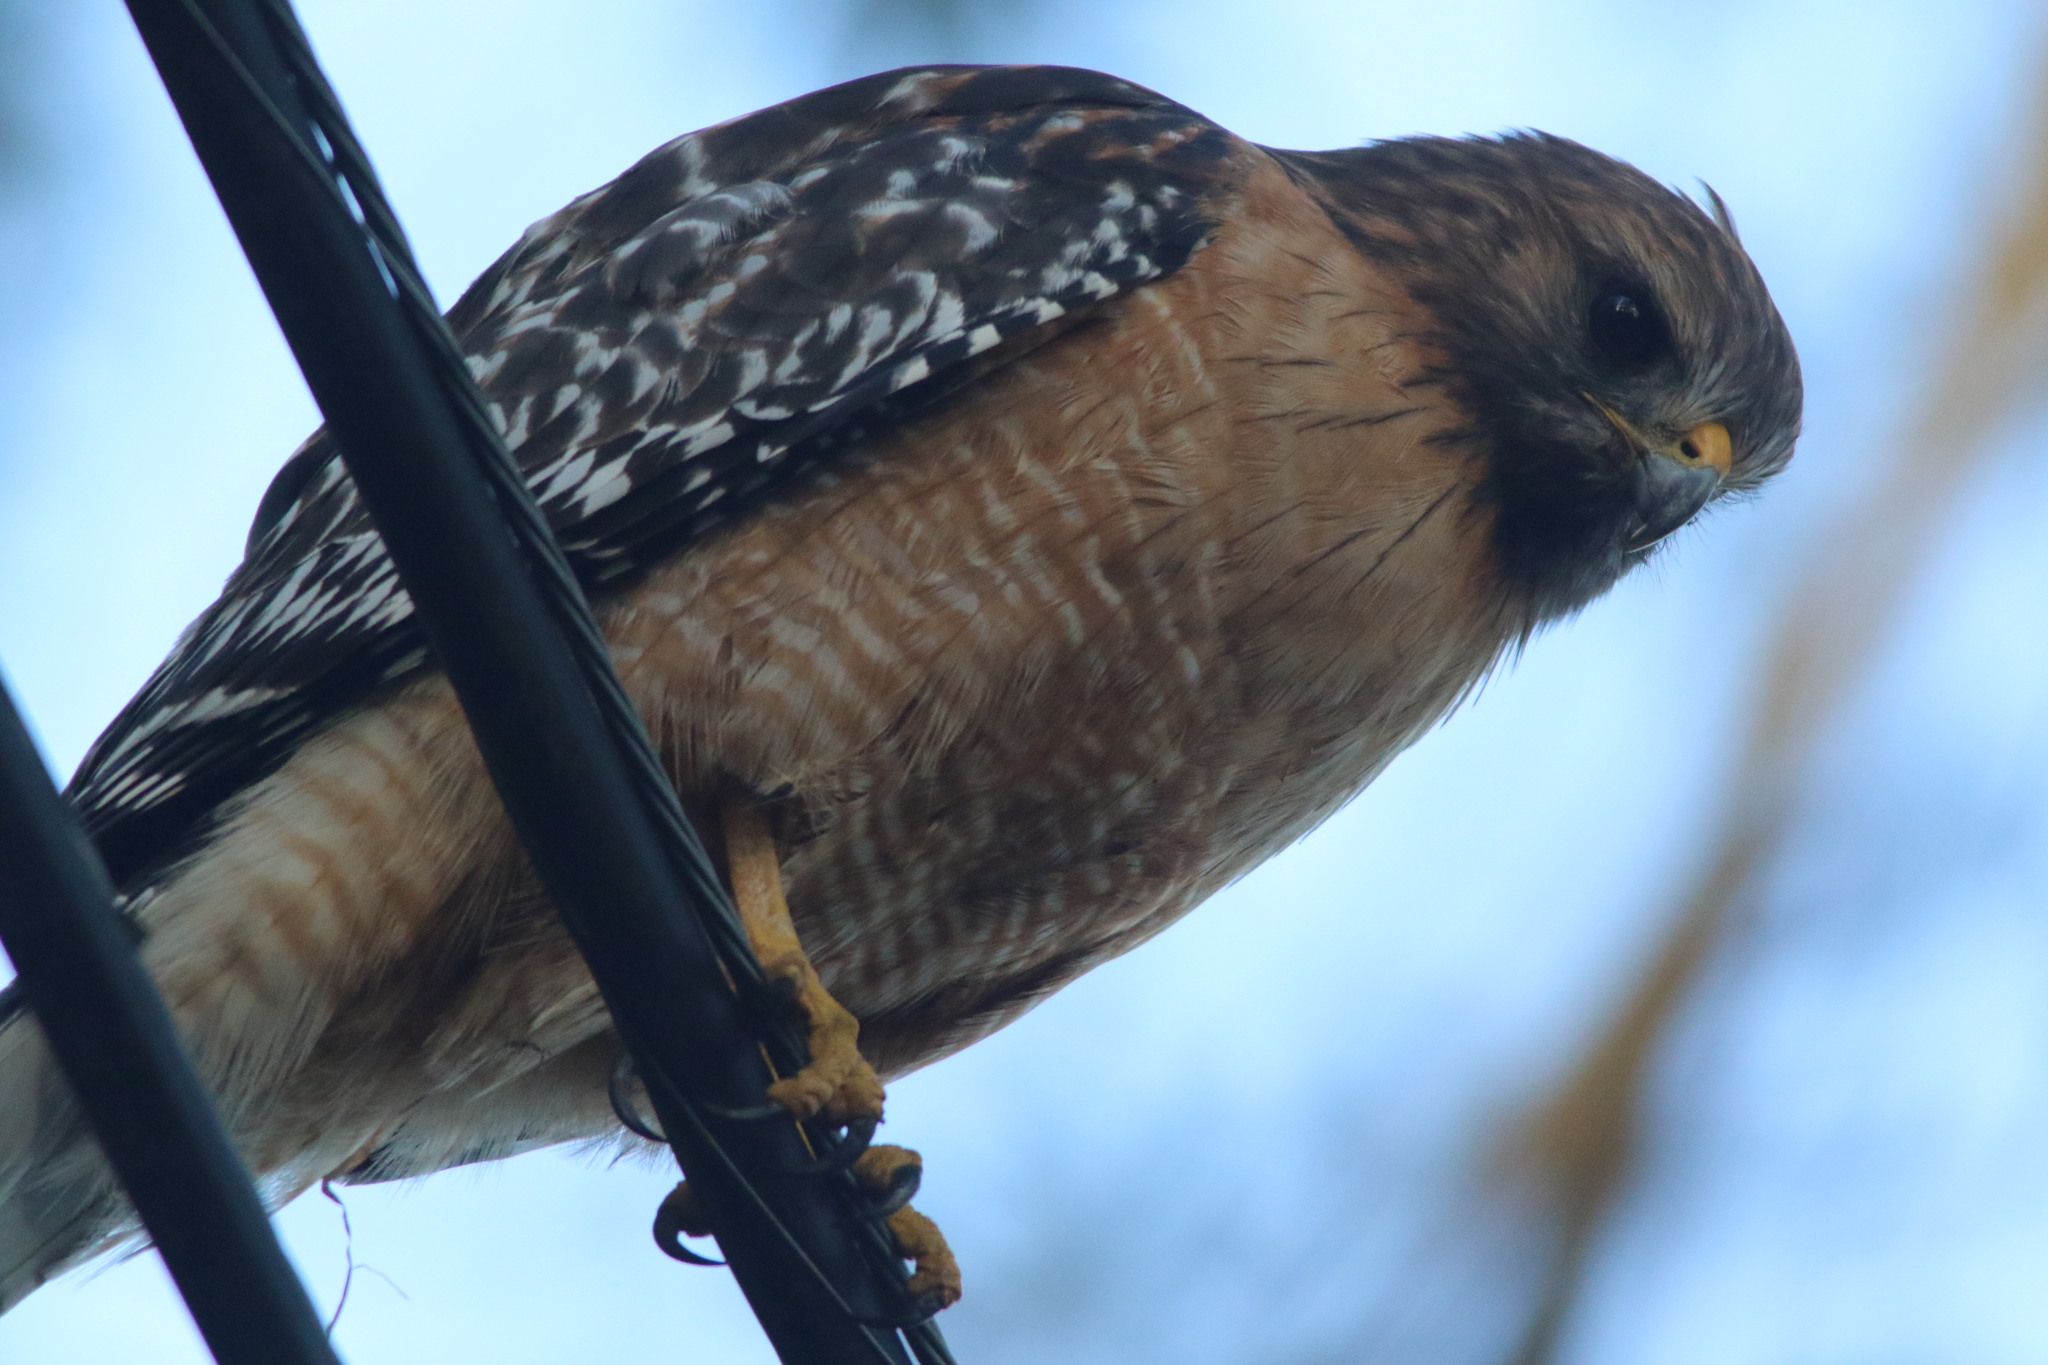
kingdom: Animalia
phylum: Chordata
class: Aves
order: Accipitriformes
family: Accipitridae
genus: Buteo
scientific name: Buteo lineatus
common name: Red-shouldered hawk
